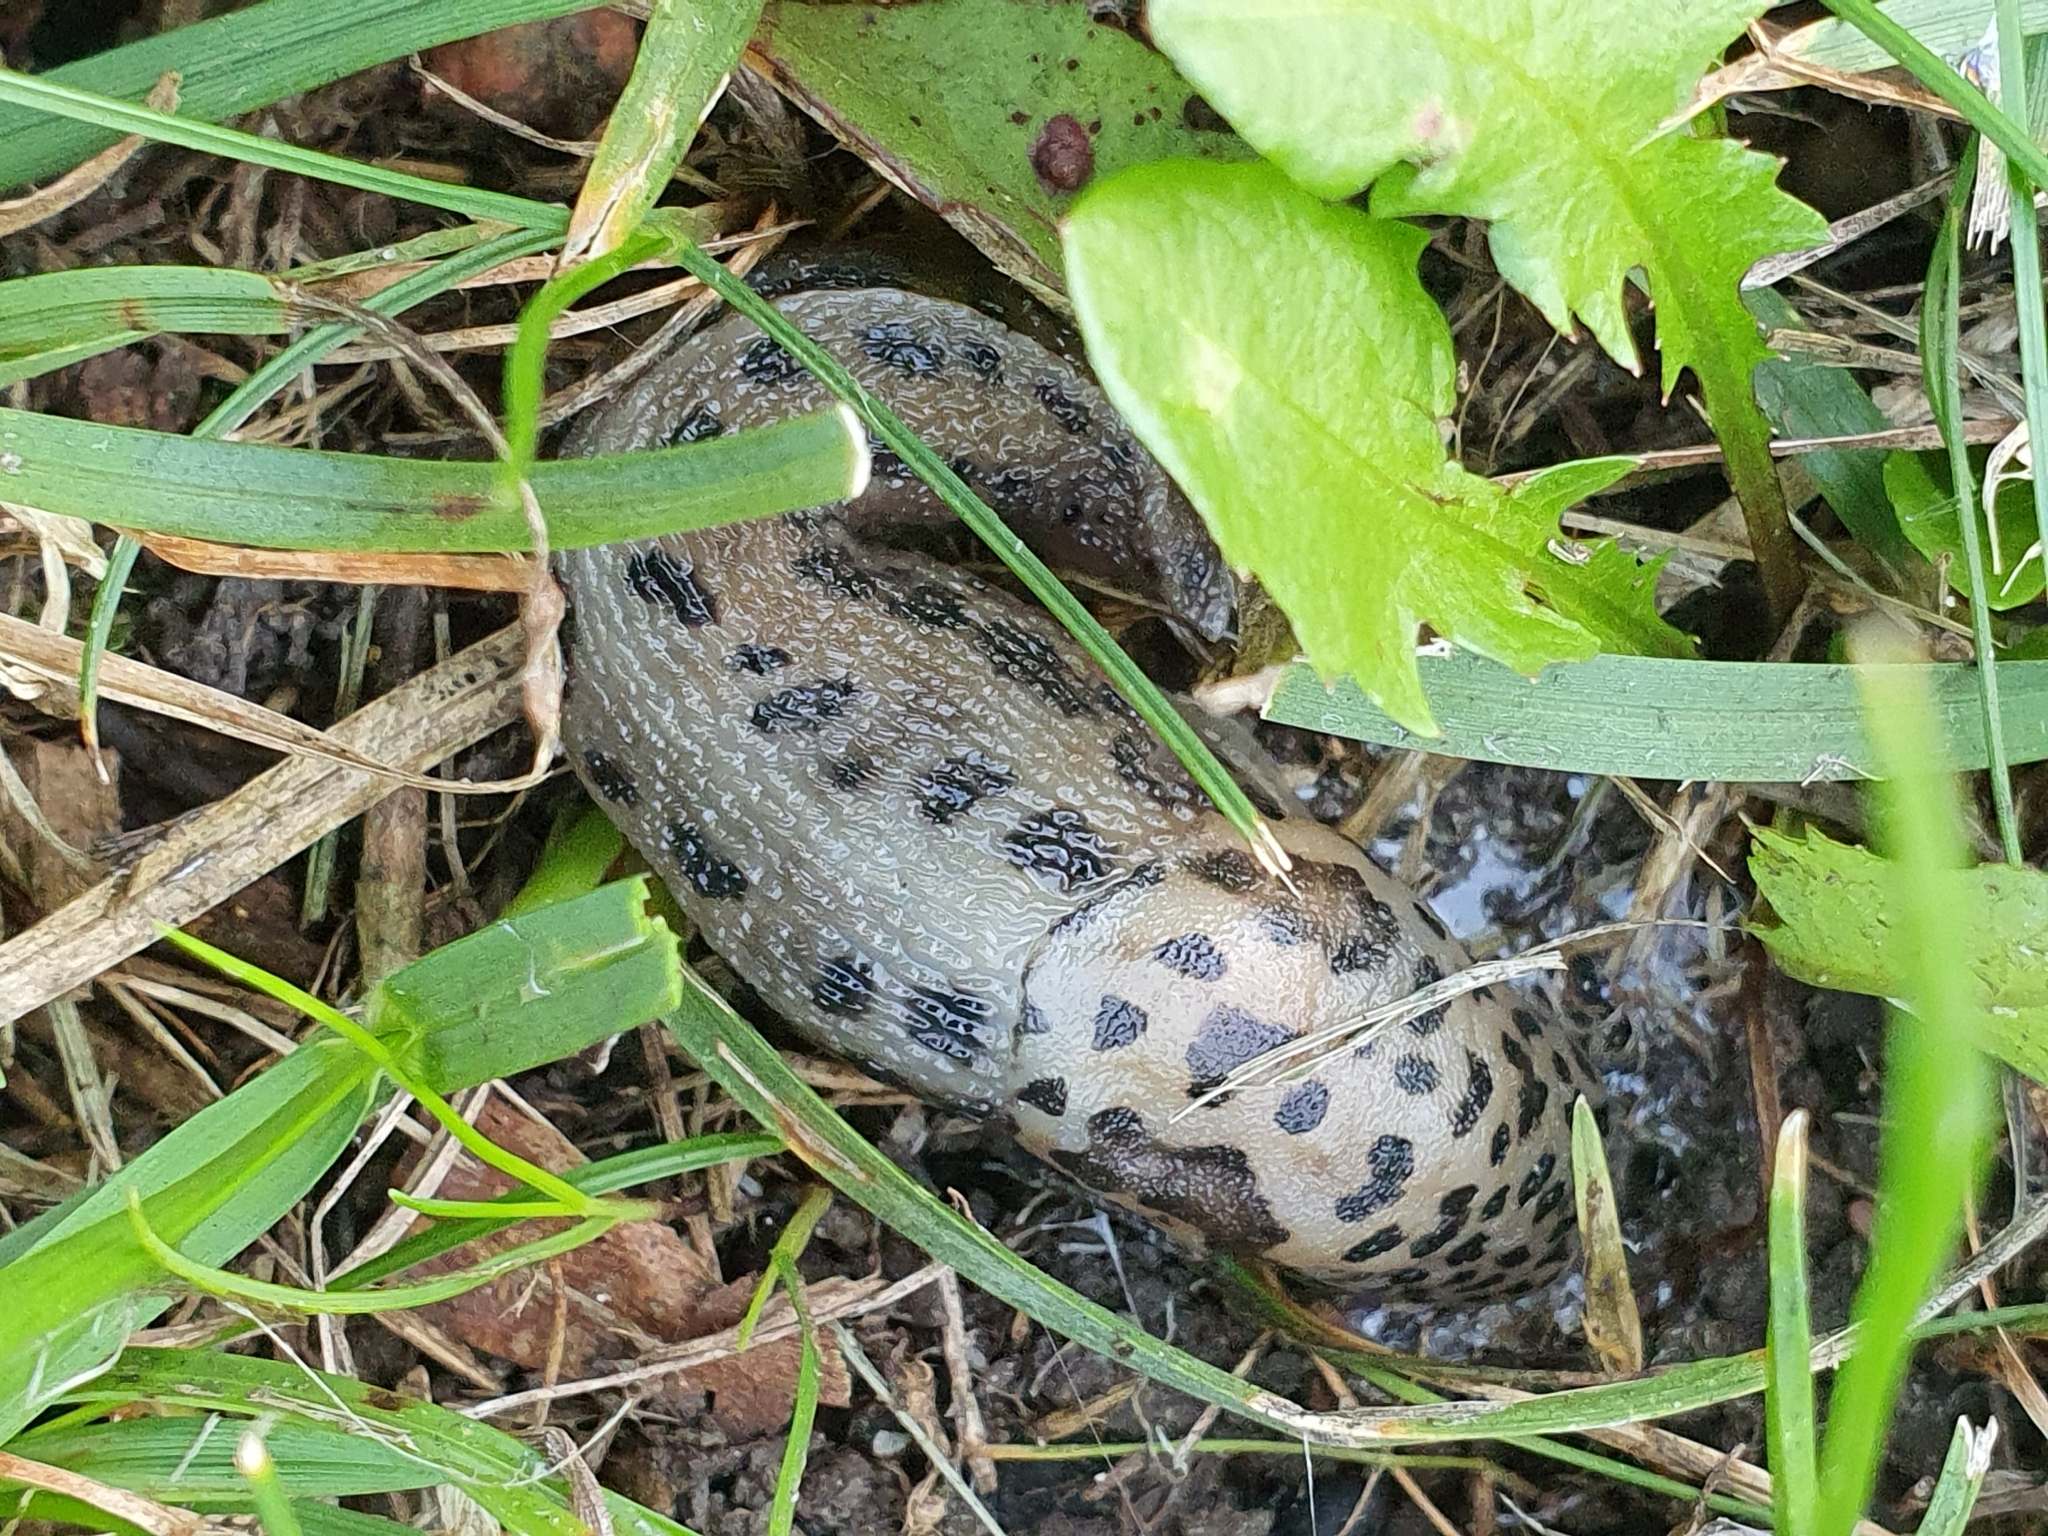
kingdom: Animalia
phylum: Mollusca
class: Gastropoda
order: Stylommatophora
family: Limacidae
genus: Limax
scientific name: Limax maximus
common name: Great grey slug
